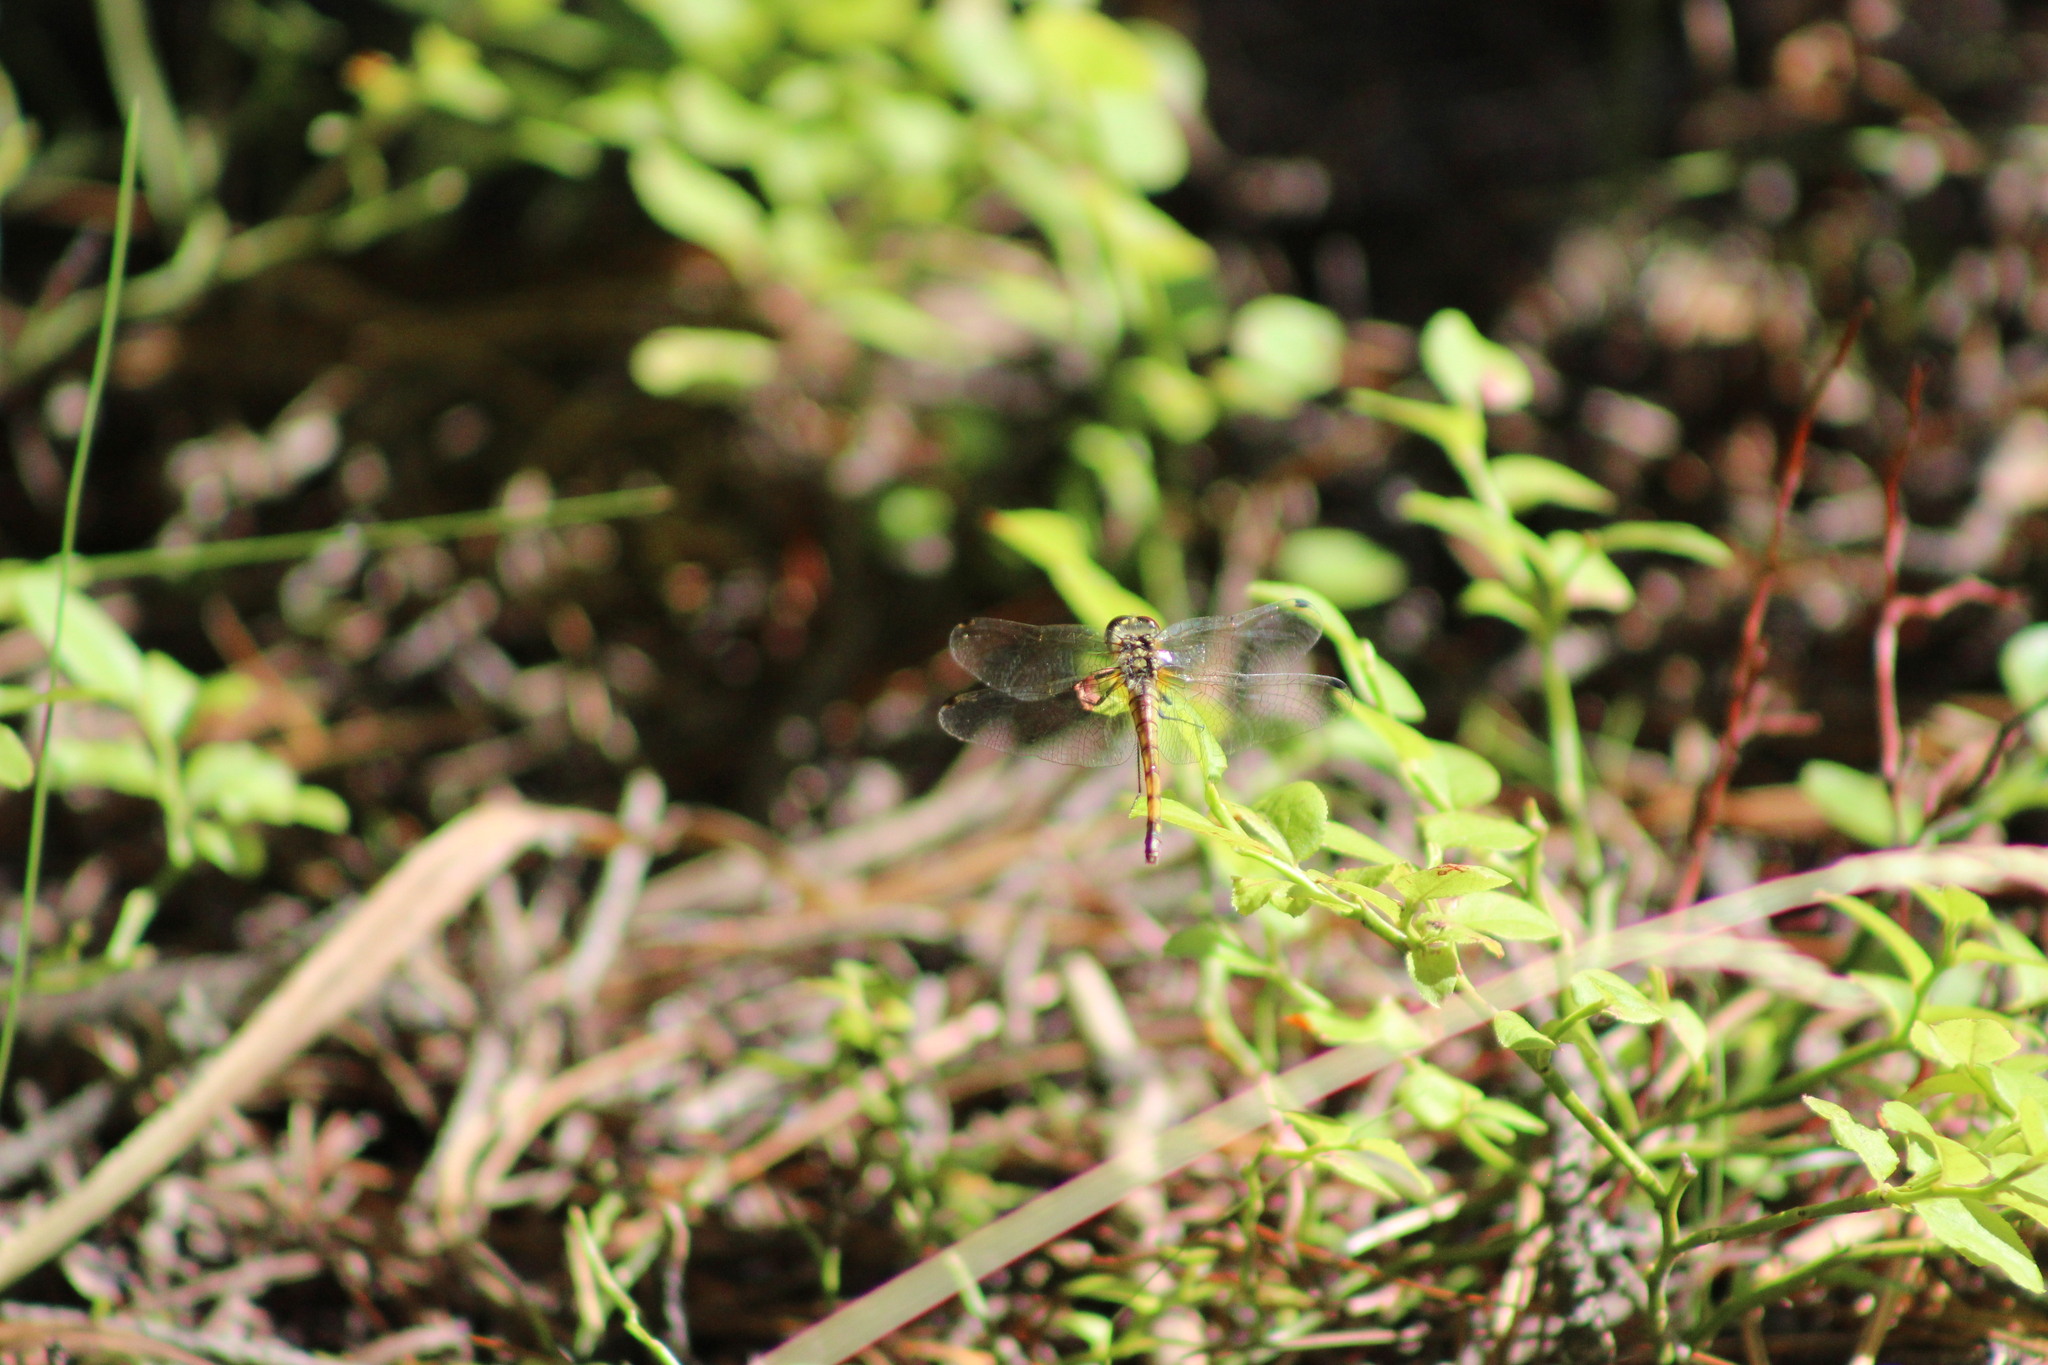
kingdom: Animalia
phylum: Arthropoda
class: Insecta
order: Odonata
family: Libellulidae
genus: Sympetrum
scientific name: Sympetrum danae
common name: Black darter
